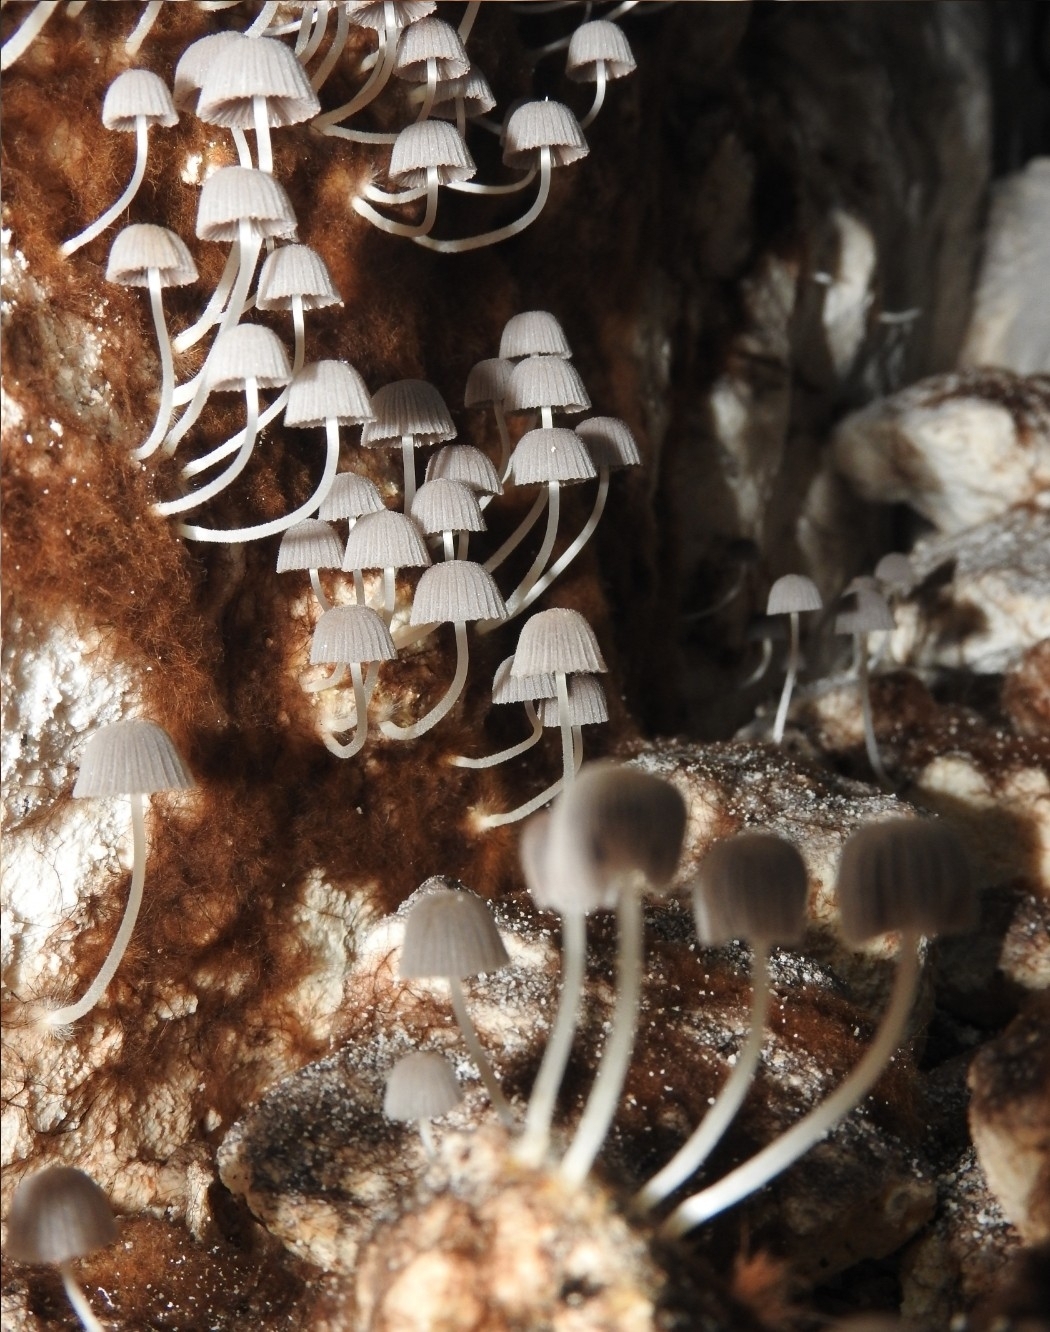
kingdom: Fungi
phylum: Basidiomycota
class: Agaricomycetes
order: Agaricales
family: Psathyrellaceae
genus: Coprinellus
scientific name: Coprinellus disseminatus
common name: Fairies' bonnets
